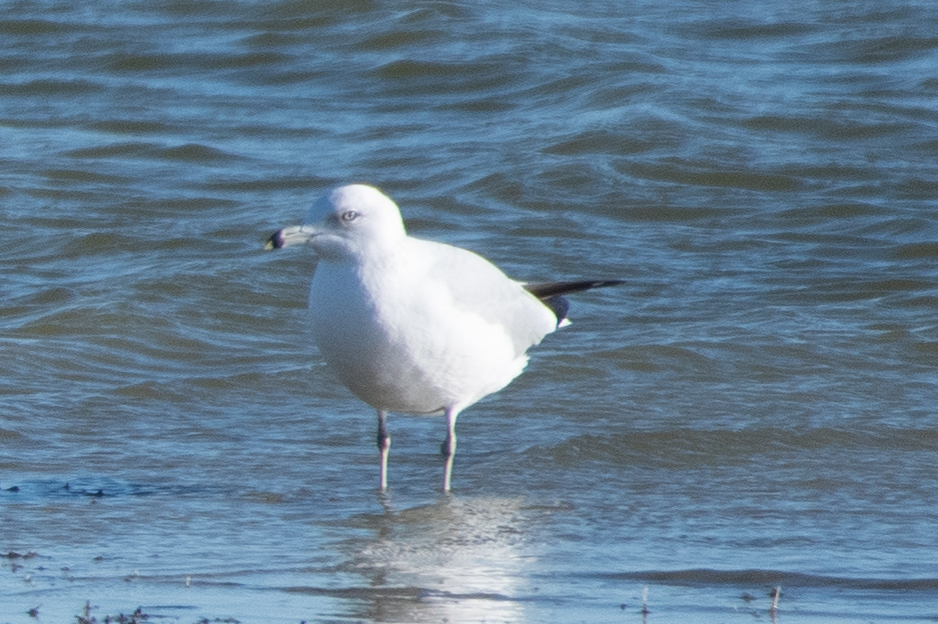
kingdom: Animalia
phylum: Chordata
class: Aves
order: Charadriiformes
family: Laridae
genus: Larus
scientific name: Larus delawarensis
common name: Ring-billed gull
